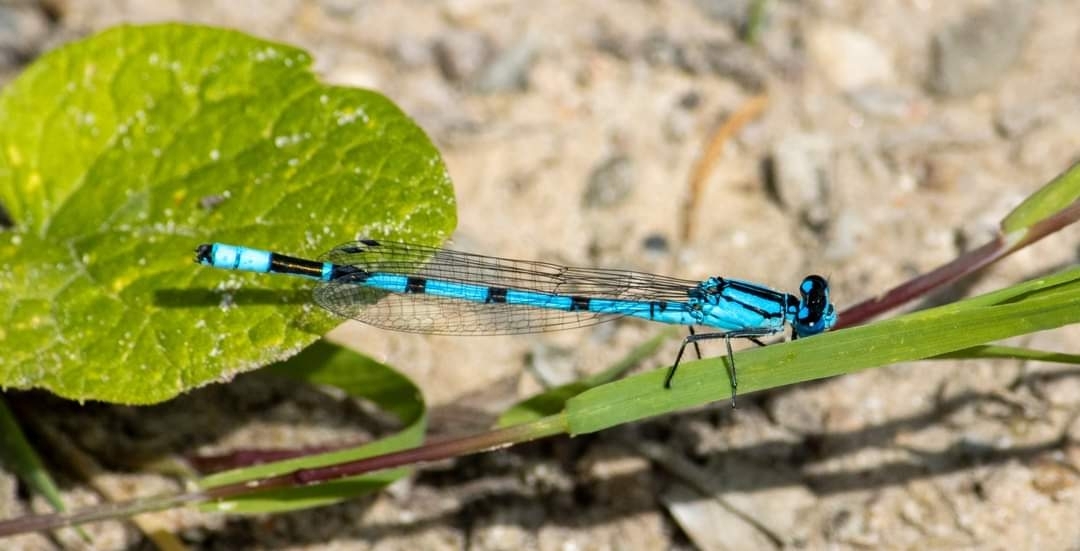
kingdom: Animalia
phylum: Arthropoda
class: Insecta
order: Odonata
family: Coenagrionidae
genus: Enallagma
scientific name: Enallagma cyathigerum
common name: Common blue damselfly
